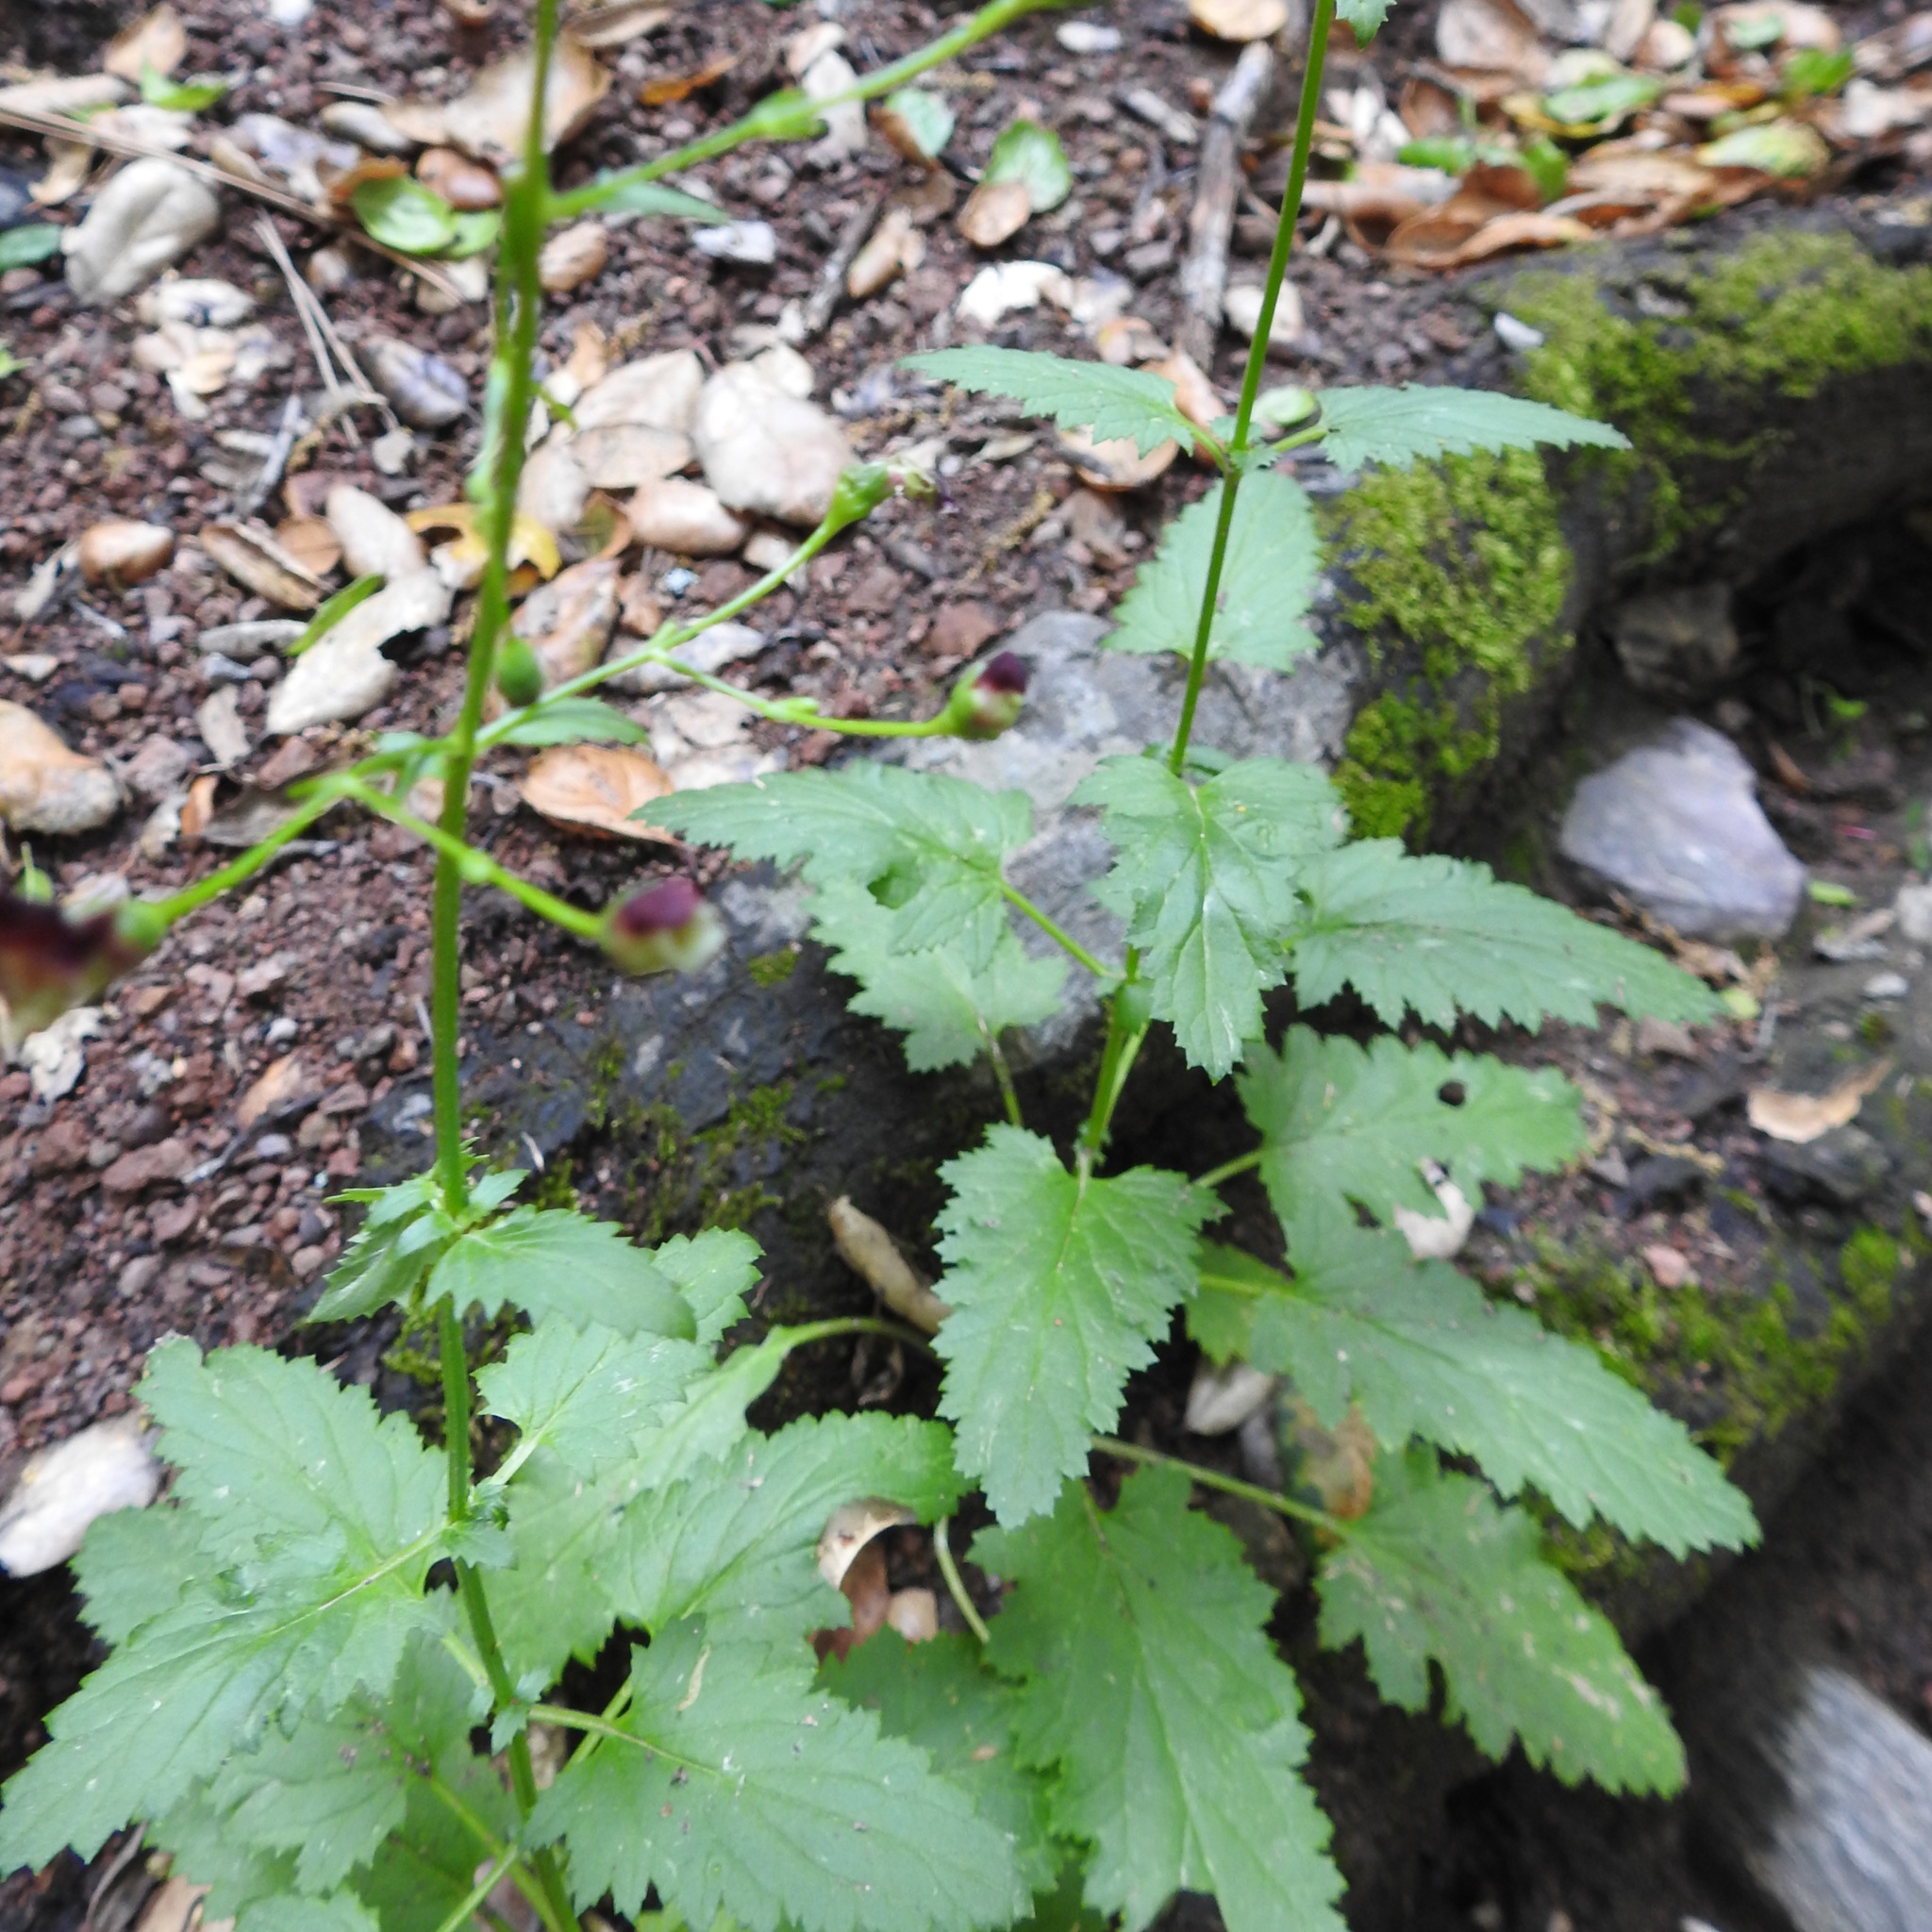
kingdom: Plantae
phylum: Tracheophyta
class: Magnoliopsida
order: Lamiales
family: Scrophulariaceae
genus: Scrophularia
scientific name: Scrophularia californica
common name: California figwort
